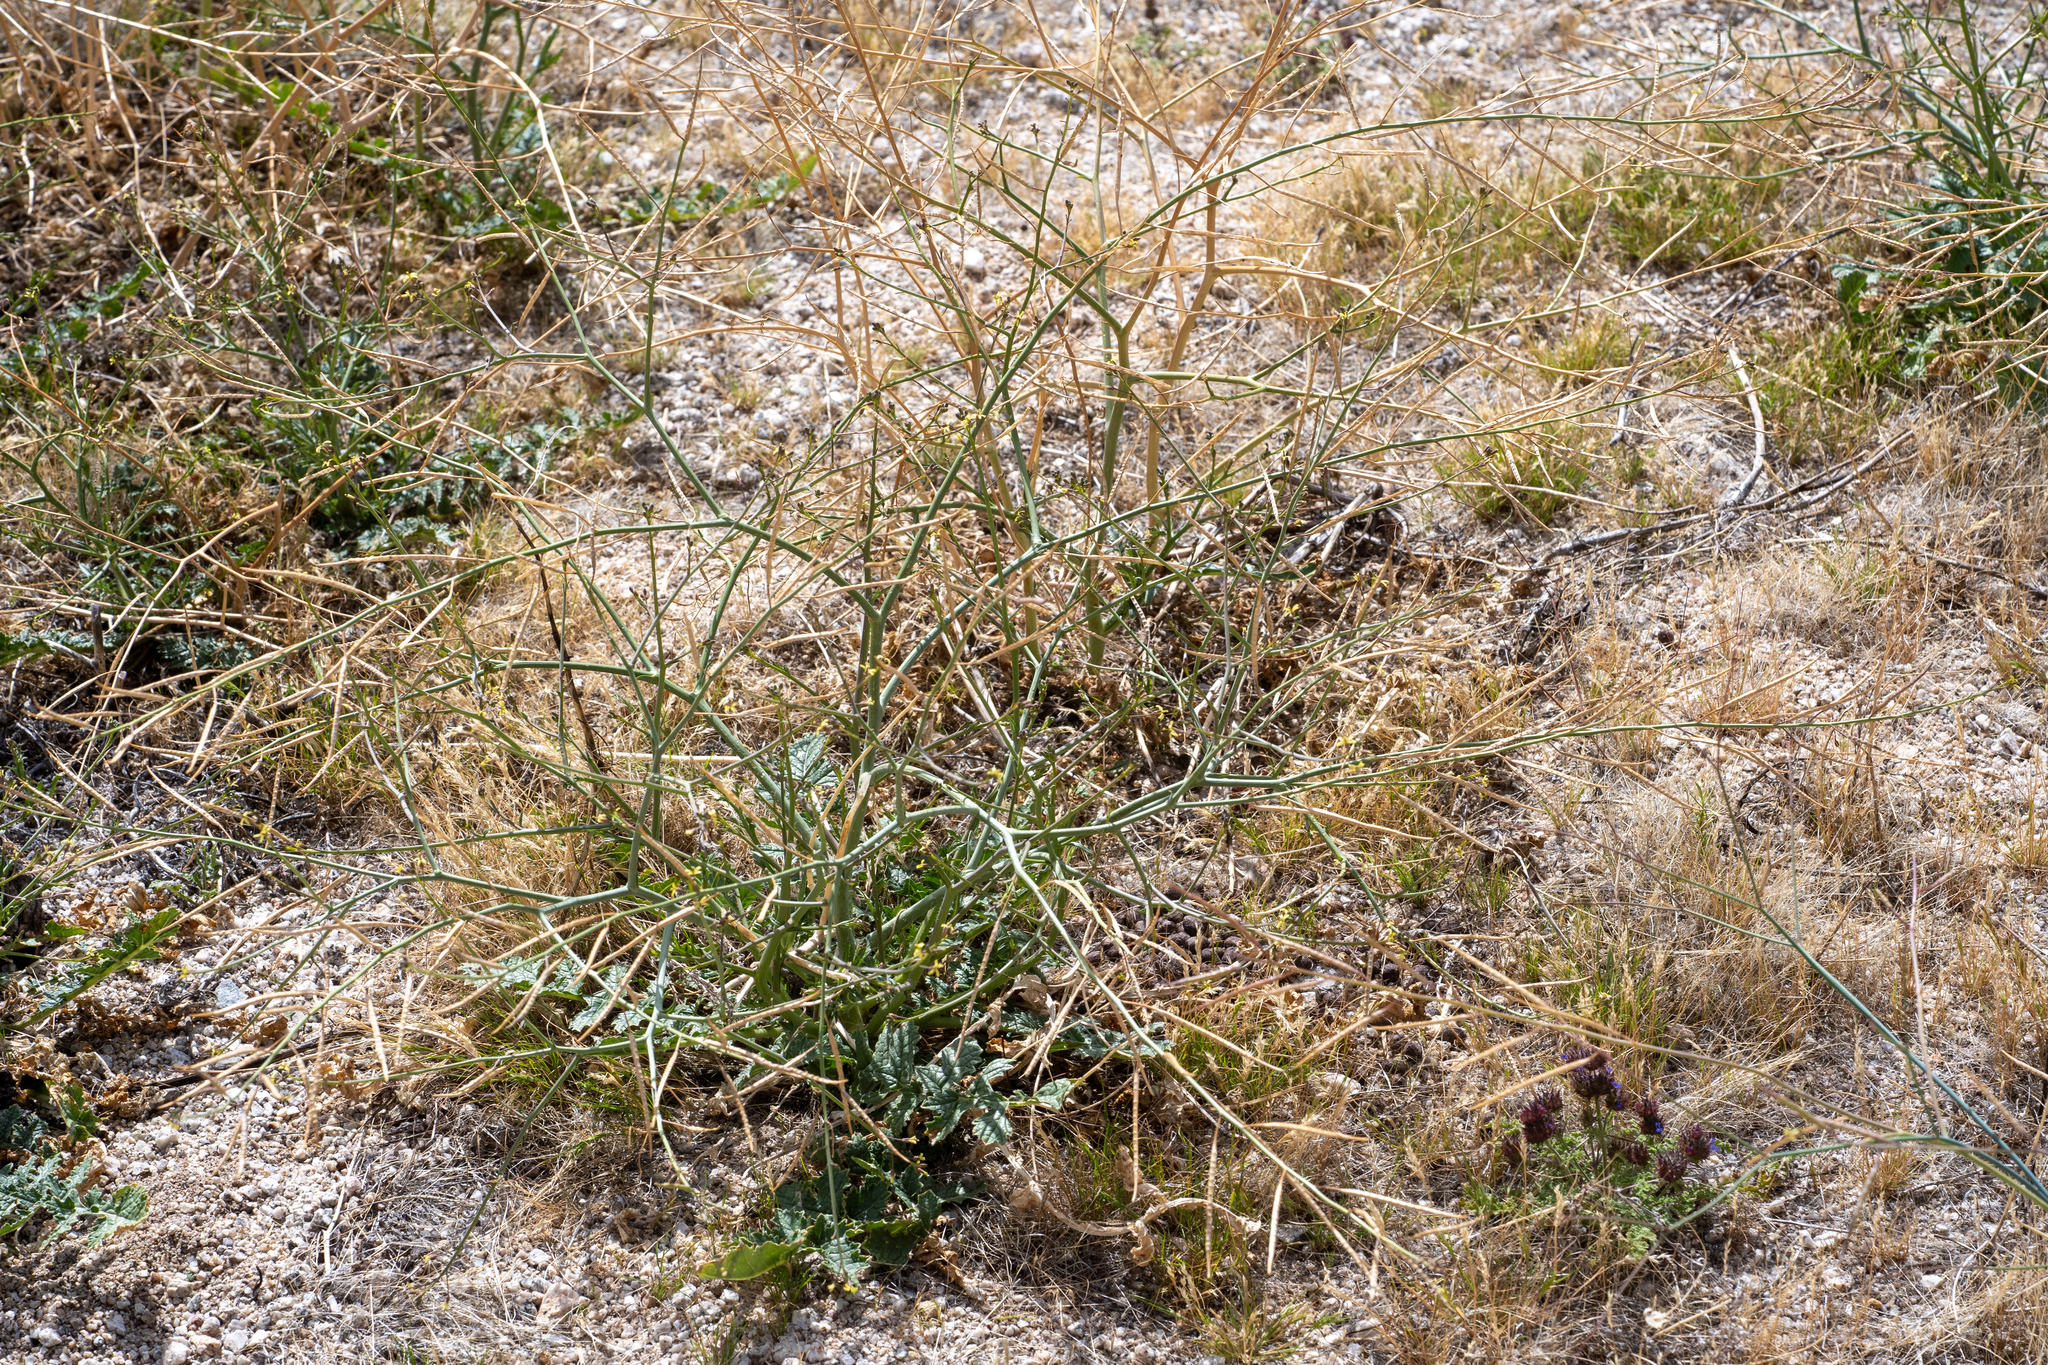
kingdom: Plantae
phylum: Tracheophyta
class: Magnoliopsida
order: Brassicales
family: Brassicaceae
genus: Brassica
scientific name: Brassica tournefortii
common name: Pale cabbage
